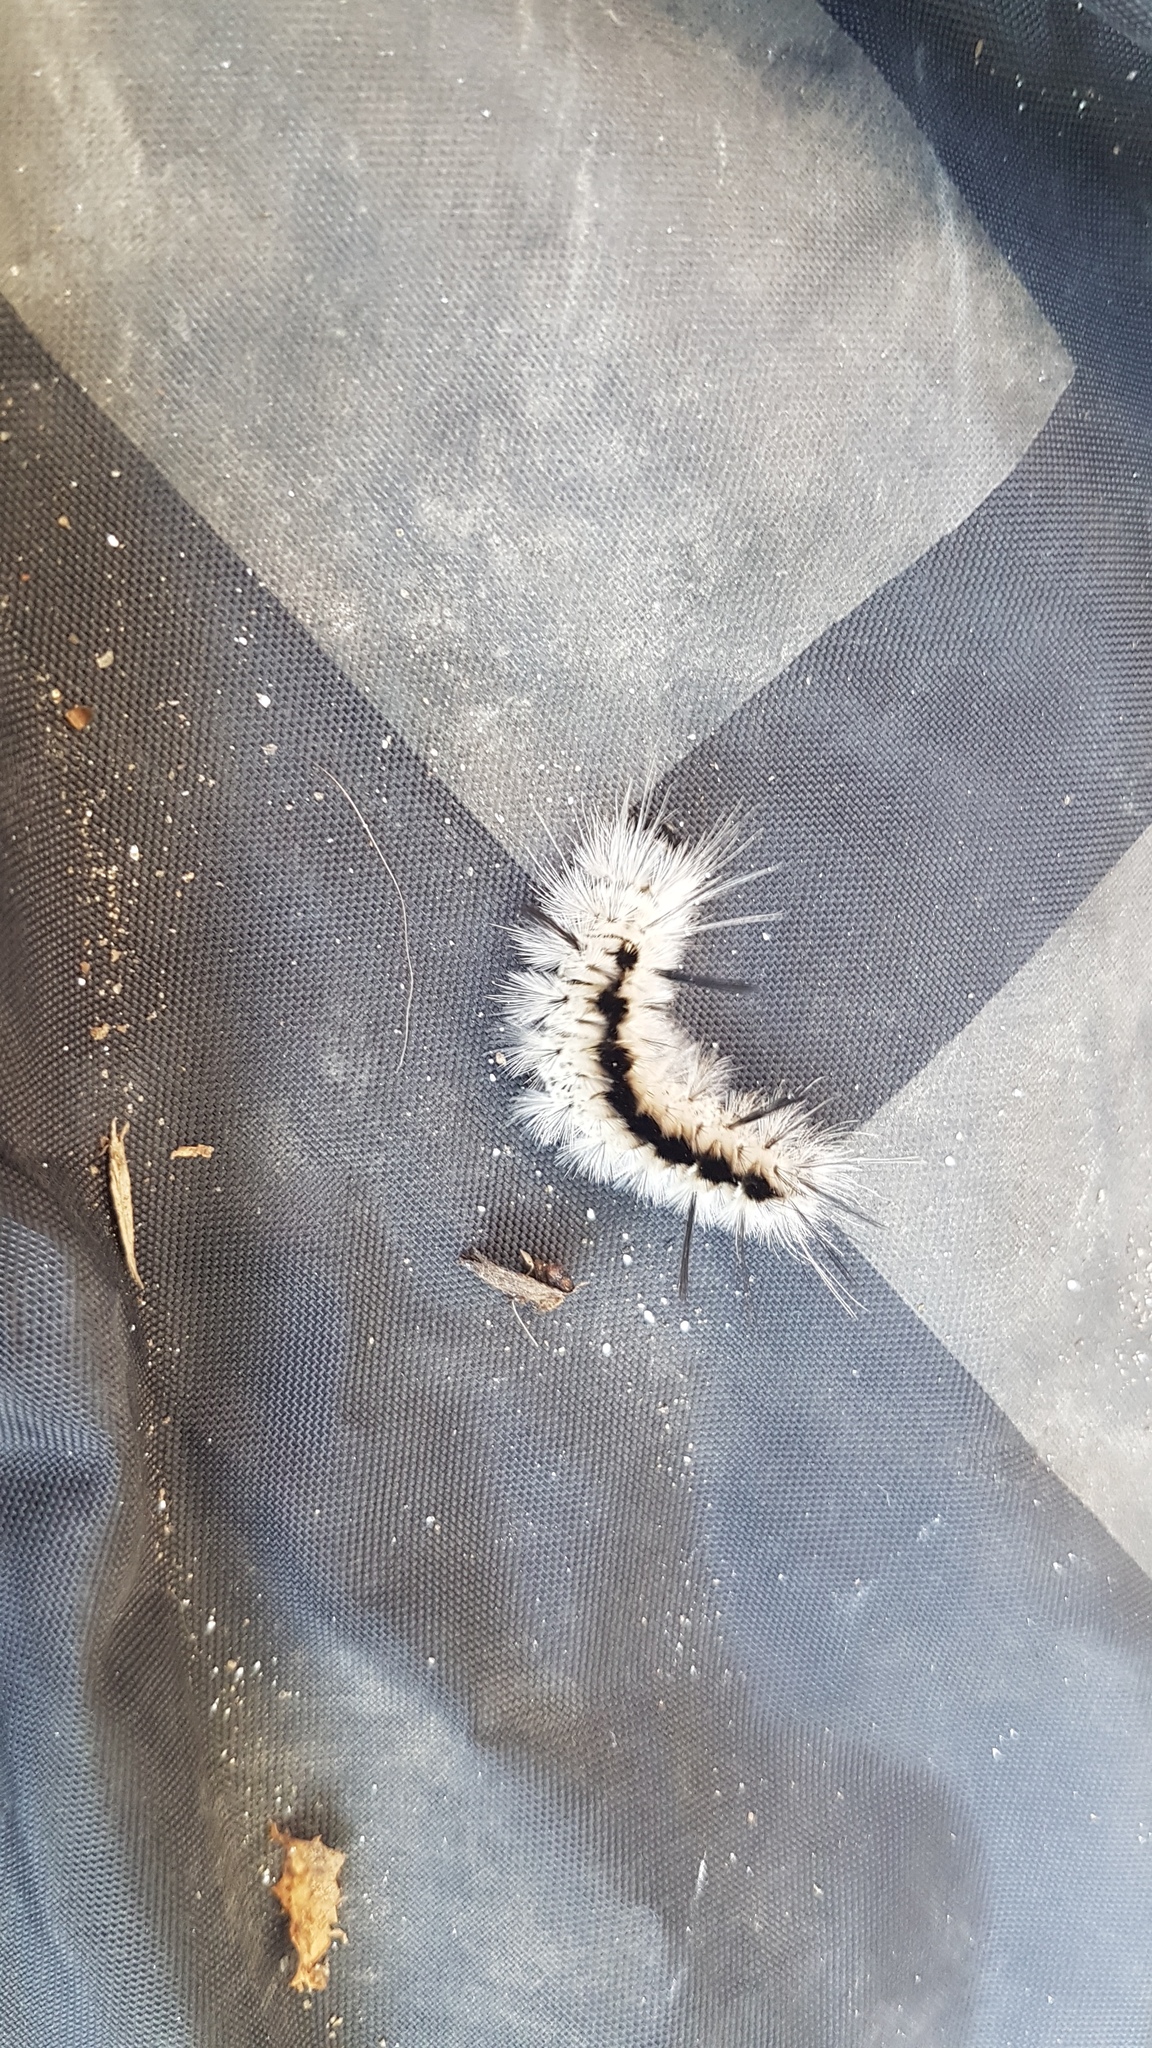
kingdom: Animalia
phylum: Arthropoda
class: Insecta
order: Lepidoptera
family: Erebidae
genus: Lophocampa
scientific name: Lophocampa caryae
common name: Hickory tussock moth
